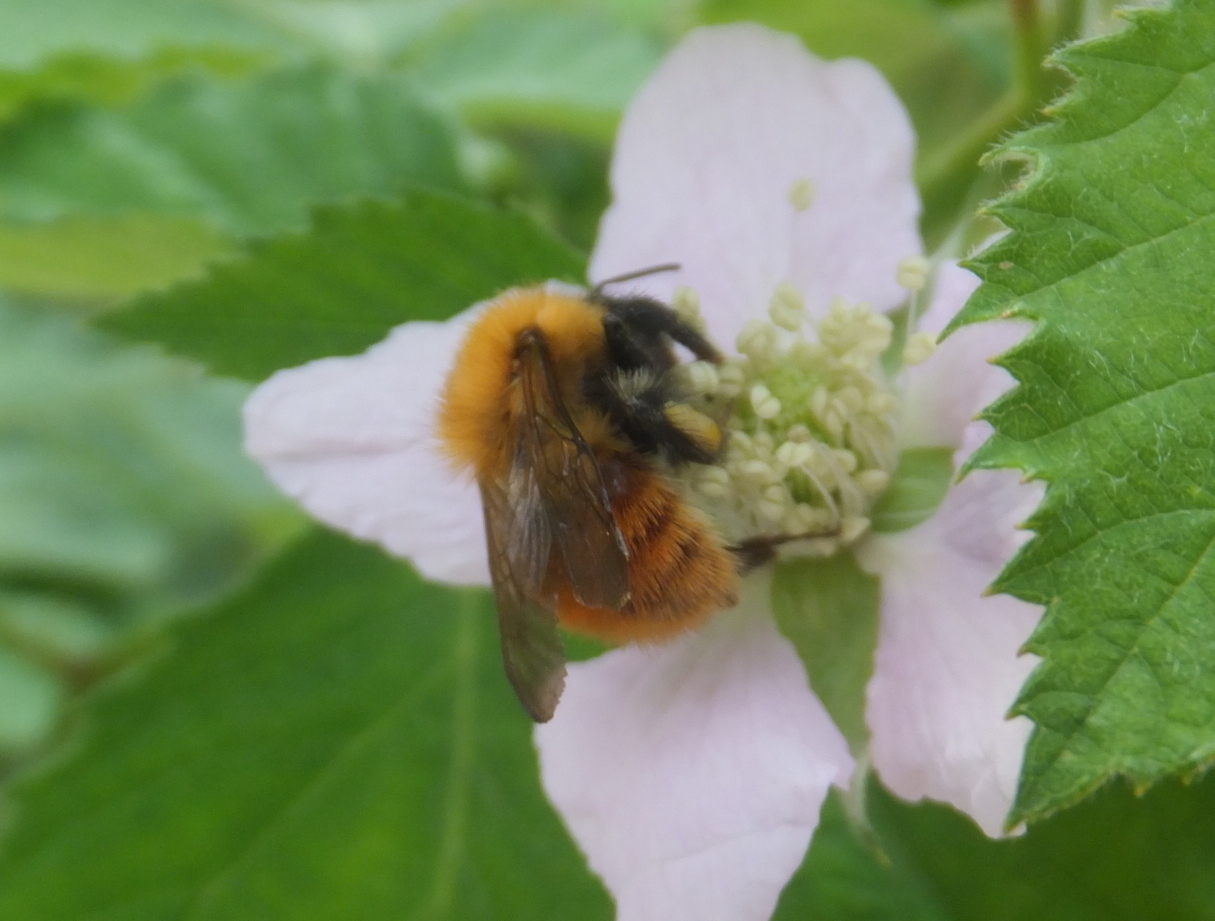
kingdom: Animalia
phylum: Arthropoda
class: Insecta
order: Hymenoptera
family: Apidae
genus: Bombus
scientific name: Bombus pascuorum
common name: Common carder bee
